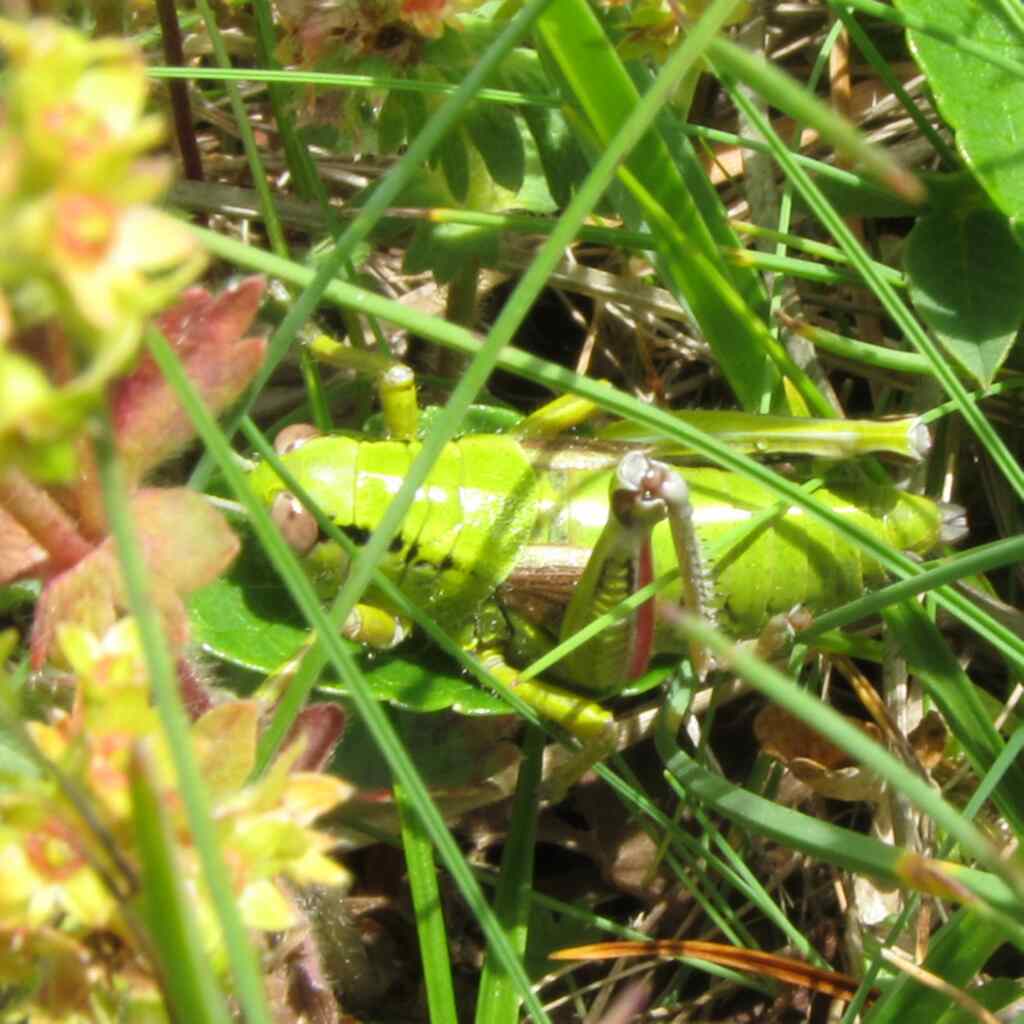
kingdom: Animalia
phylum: Arthropoda
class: Insecta
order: Orthoptera
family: Acrididae
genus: Miramella
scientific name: Miramella alpina
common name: Green mountain grasshopper
